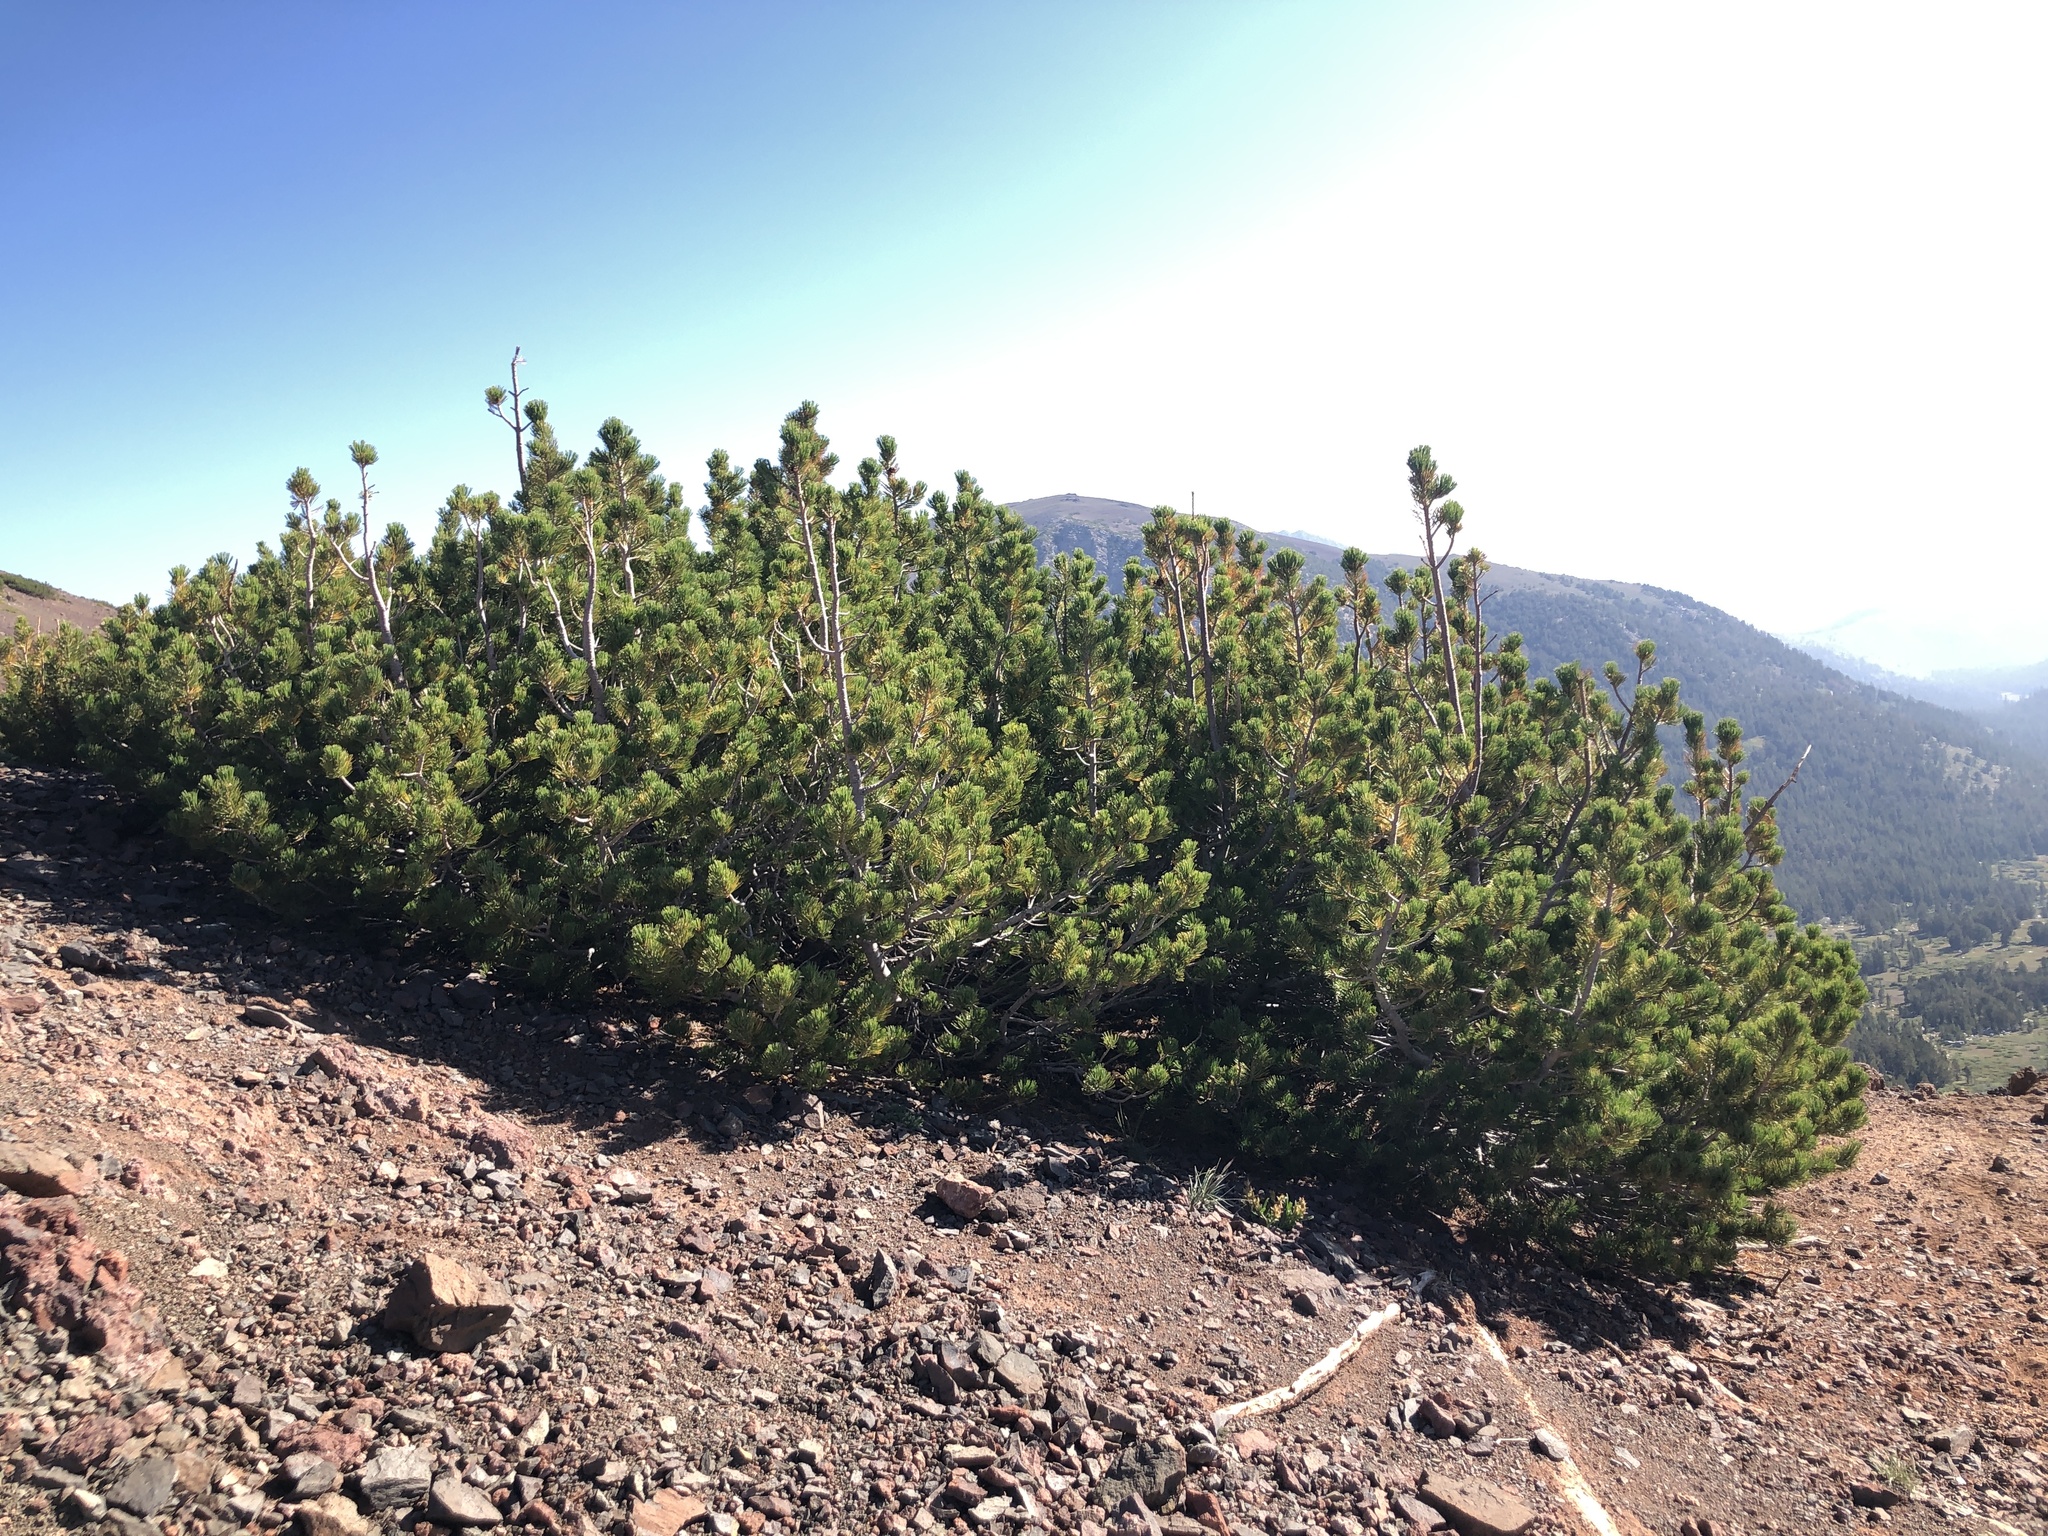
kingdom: Plantae
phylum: Tracheophyta
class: Pinopsida
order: Pinales
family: Pinaceae
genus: Pinus
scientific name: Pinus albicaulis
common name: Whitebark pine
